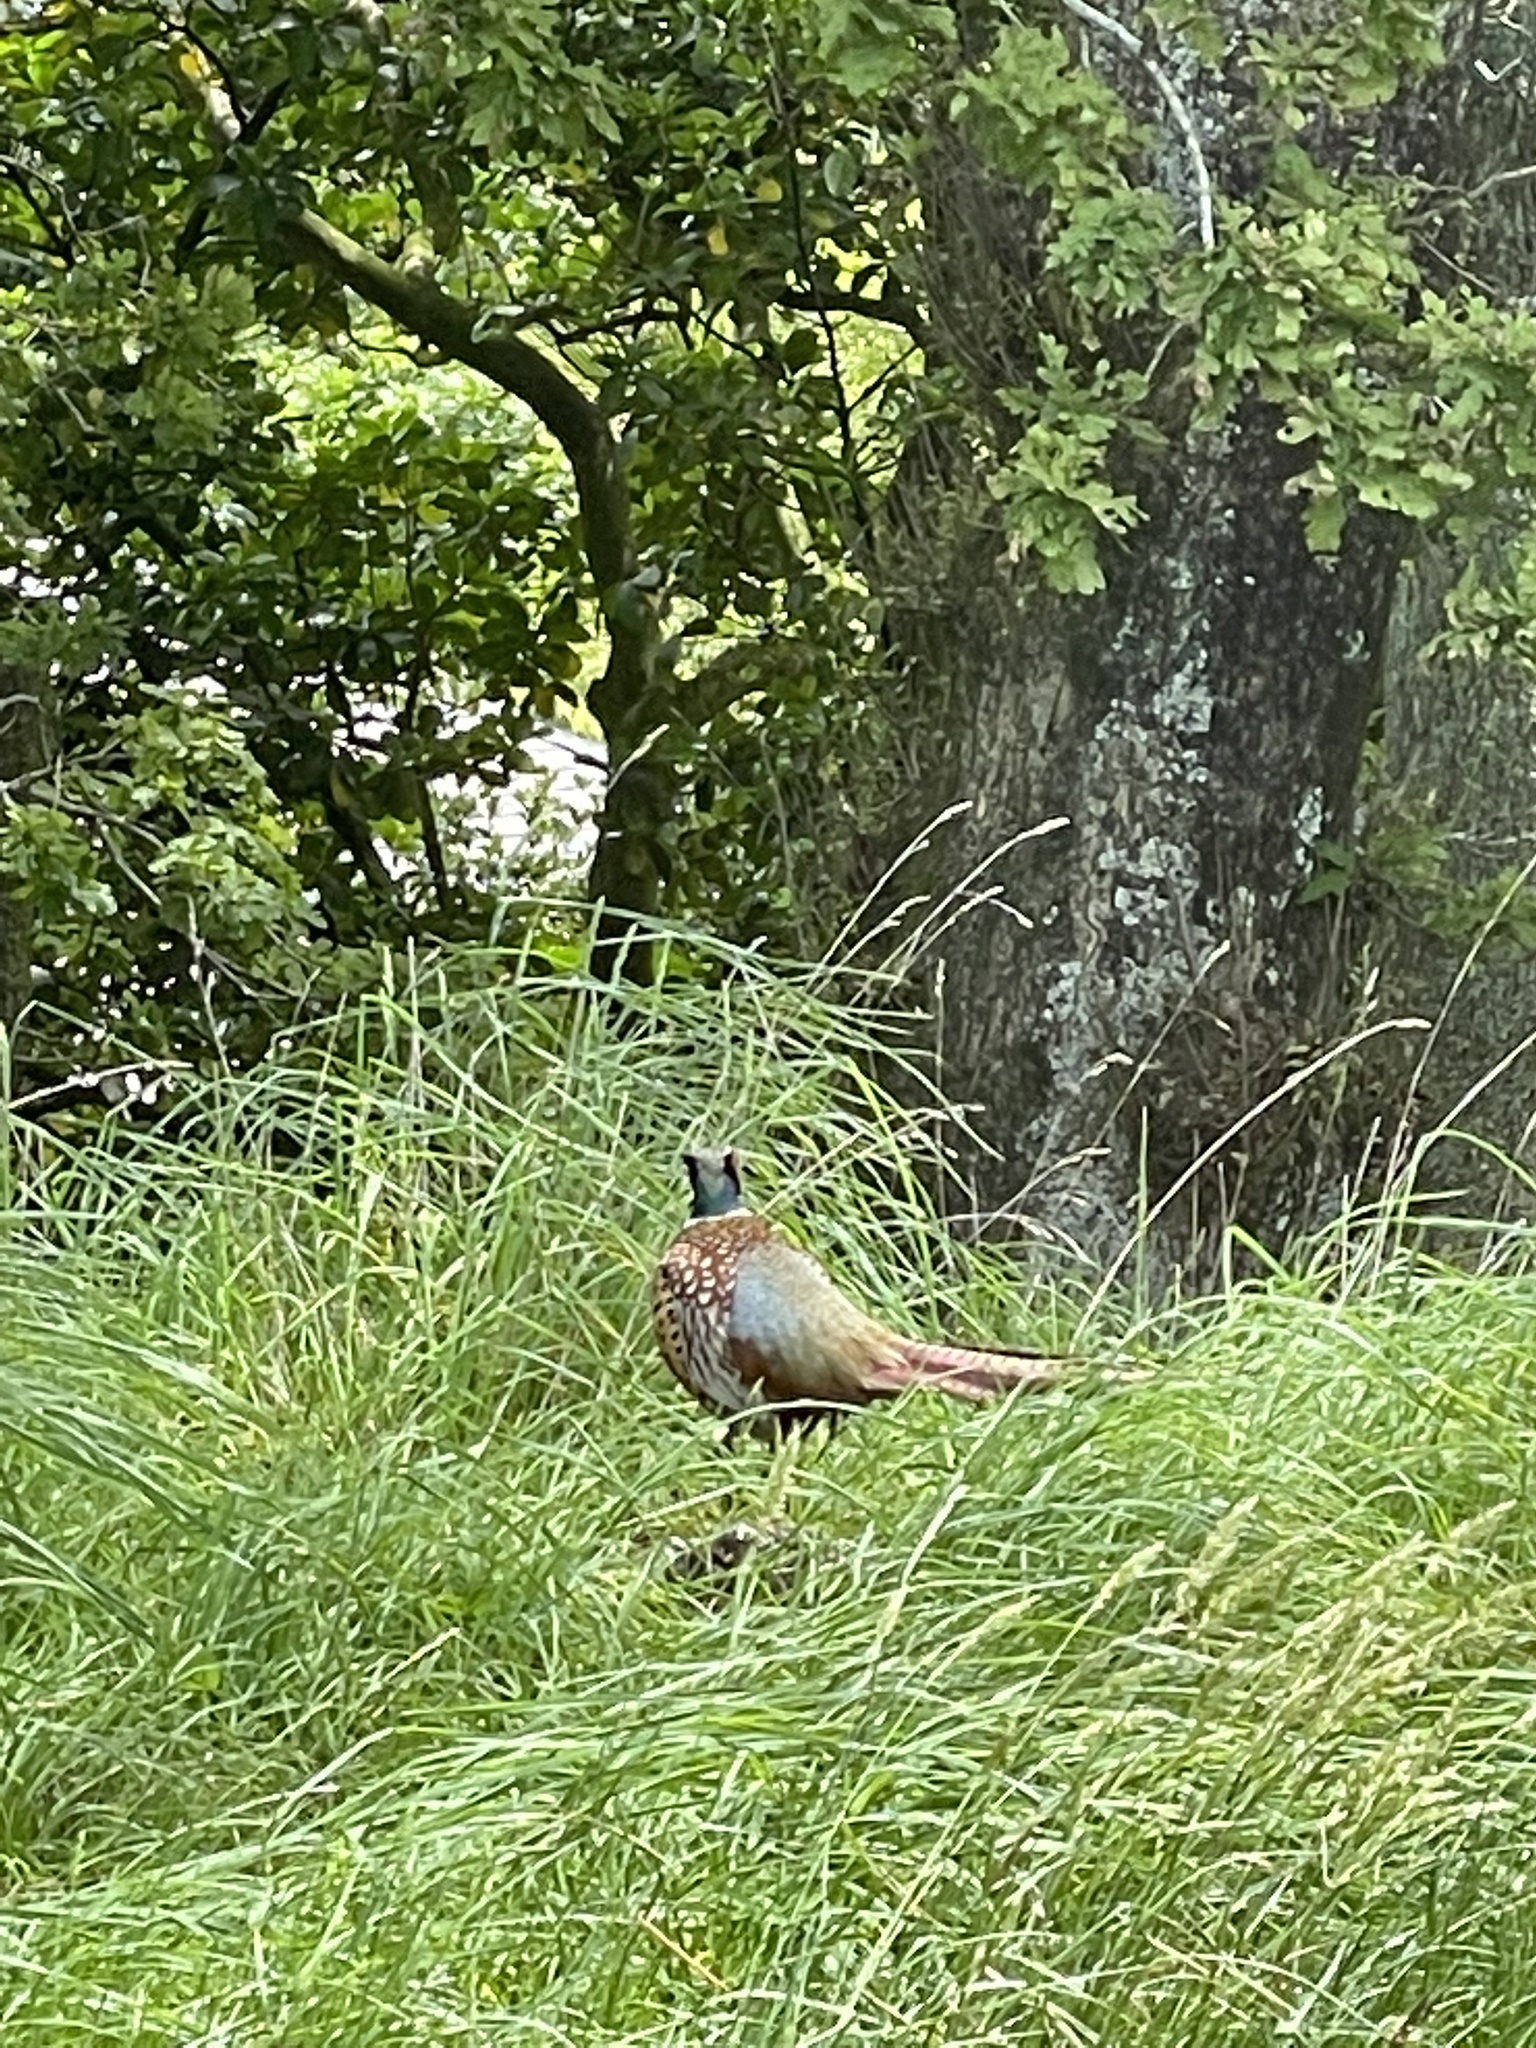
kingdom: Animalia
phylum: Chordata
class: Aves
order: Galliformes
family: Phasianidae
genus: Phasianus
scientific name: Phasianus colchicus
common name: Common pheasant
